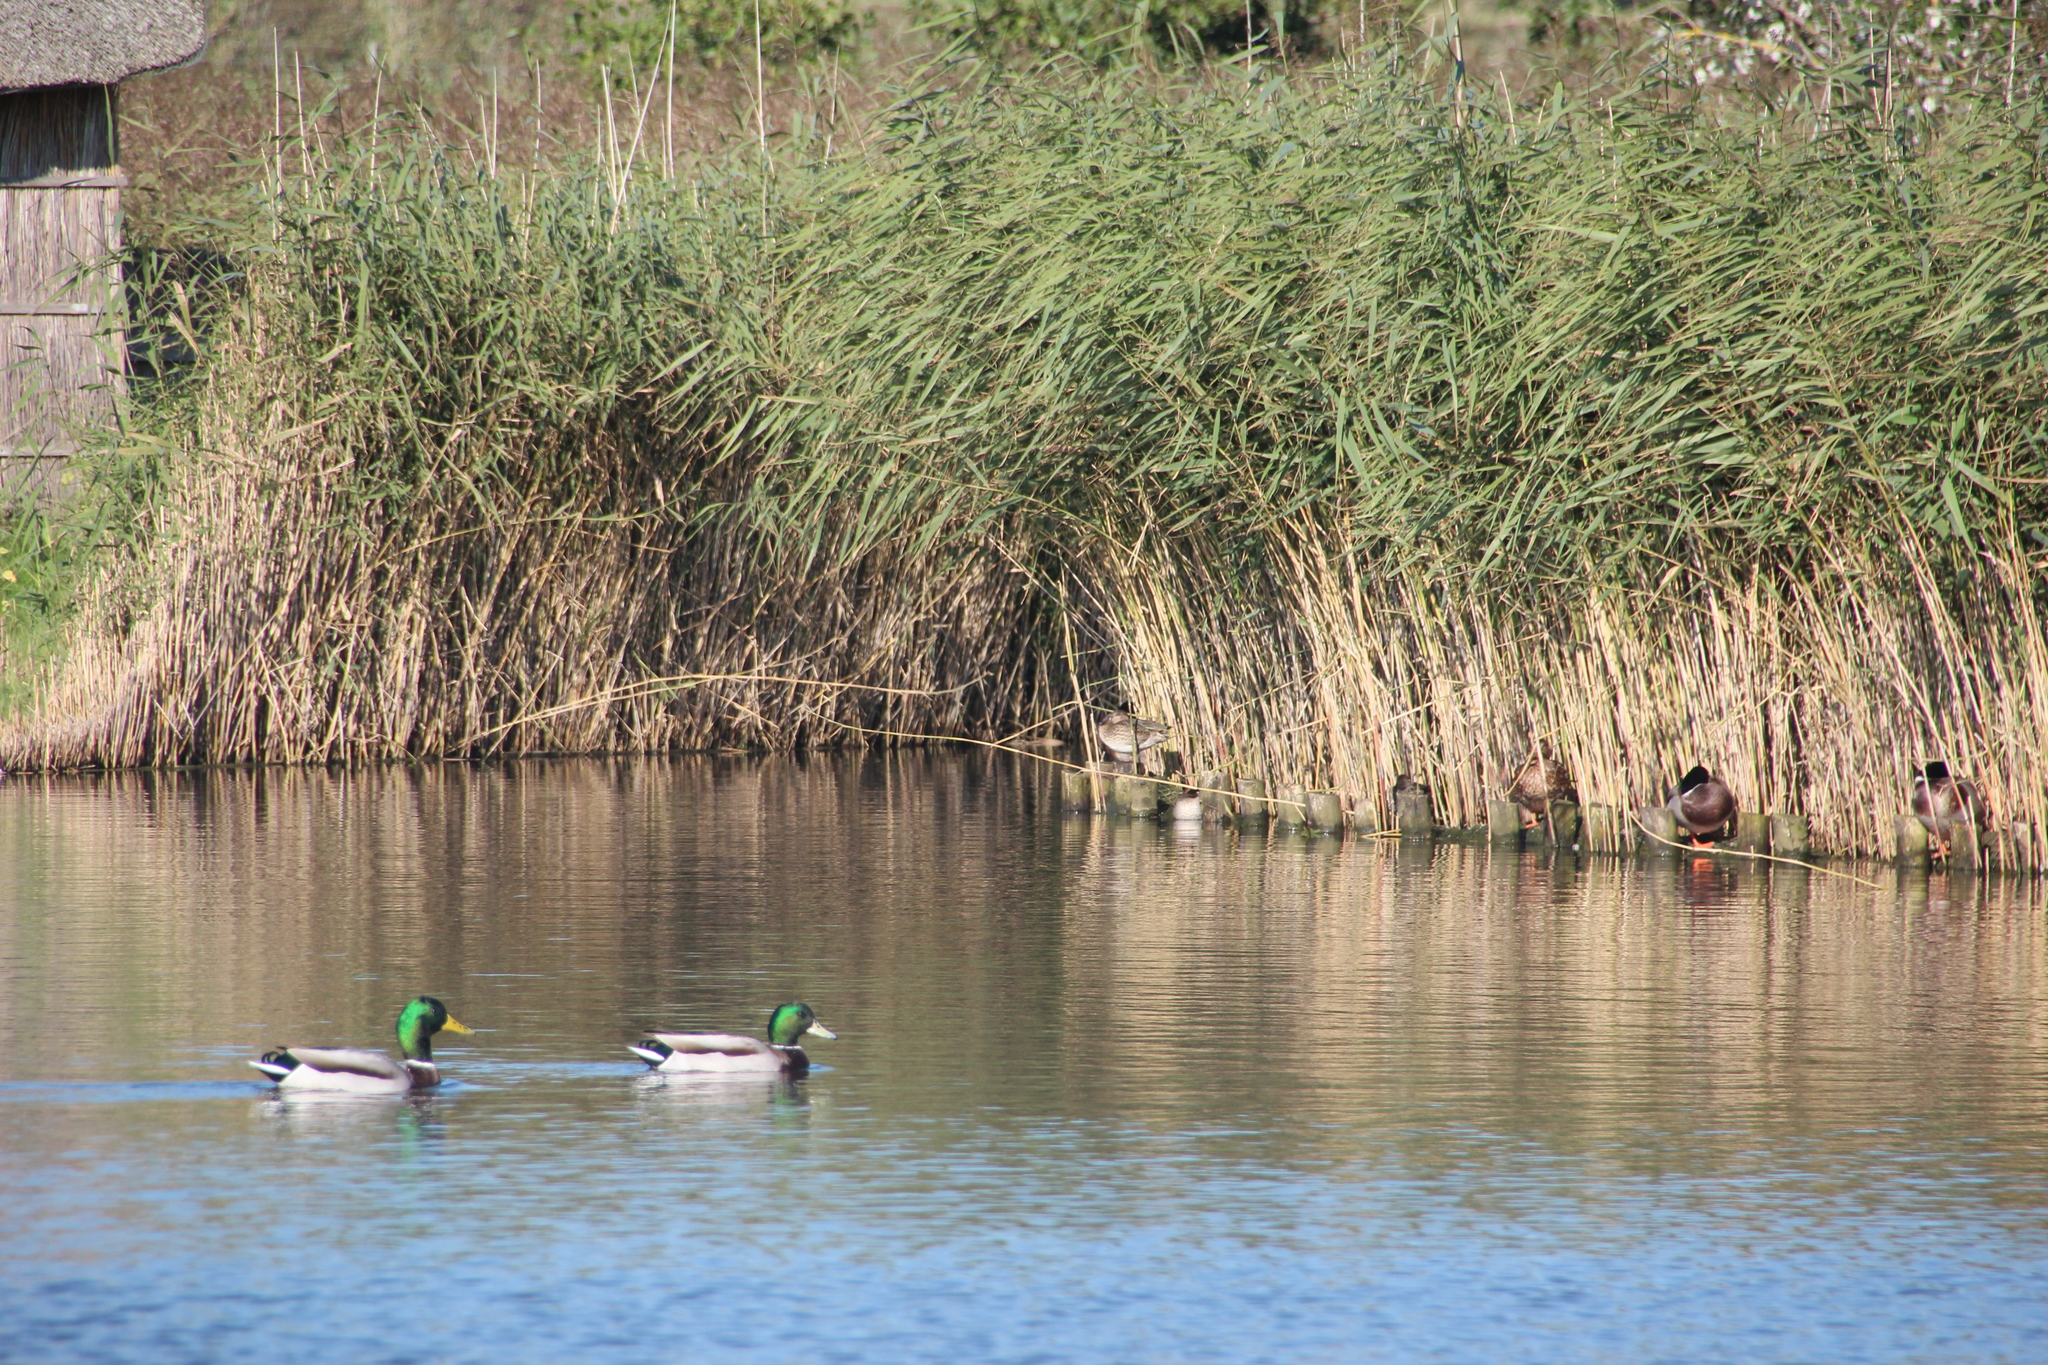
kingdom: Animalia
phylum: Chordata
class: Aves
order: Anseriformes
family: Anatidae
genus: Anas
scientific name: Anas platyrhynchos
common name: Mallard
